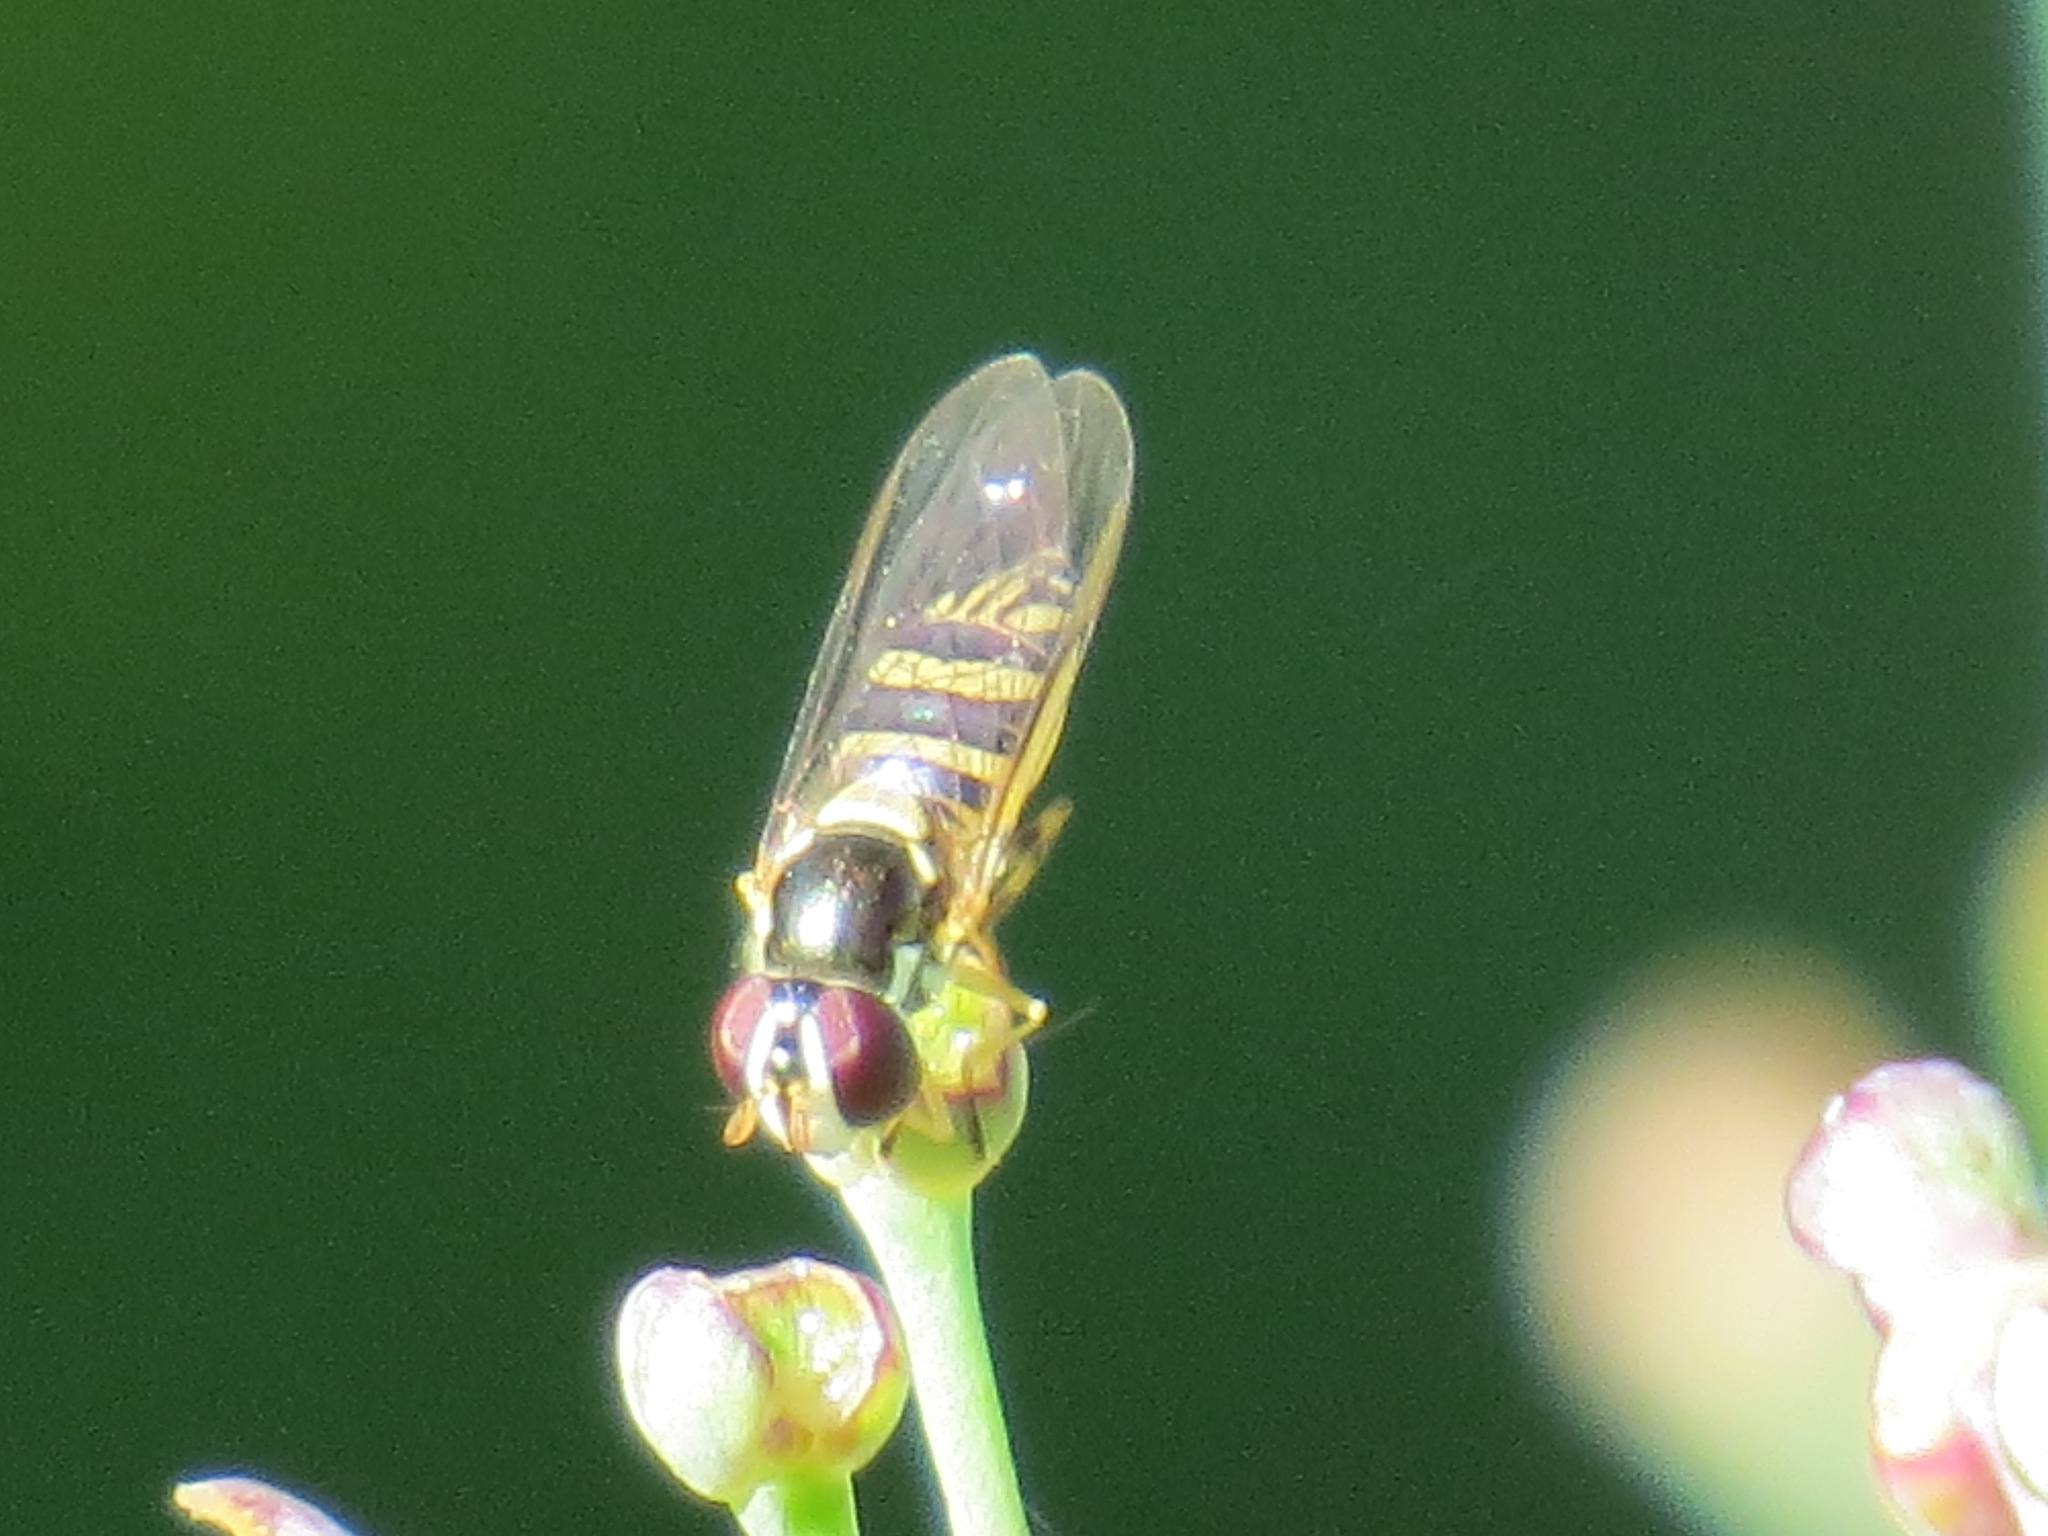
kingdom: Animalia
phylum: Arthropoda
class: Insecta
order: Diptera
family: Syrphidae
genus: Allograpta
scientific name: Allograpta obliqua
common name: Common oblique syrphid
